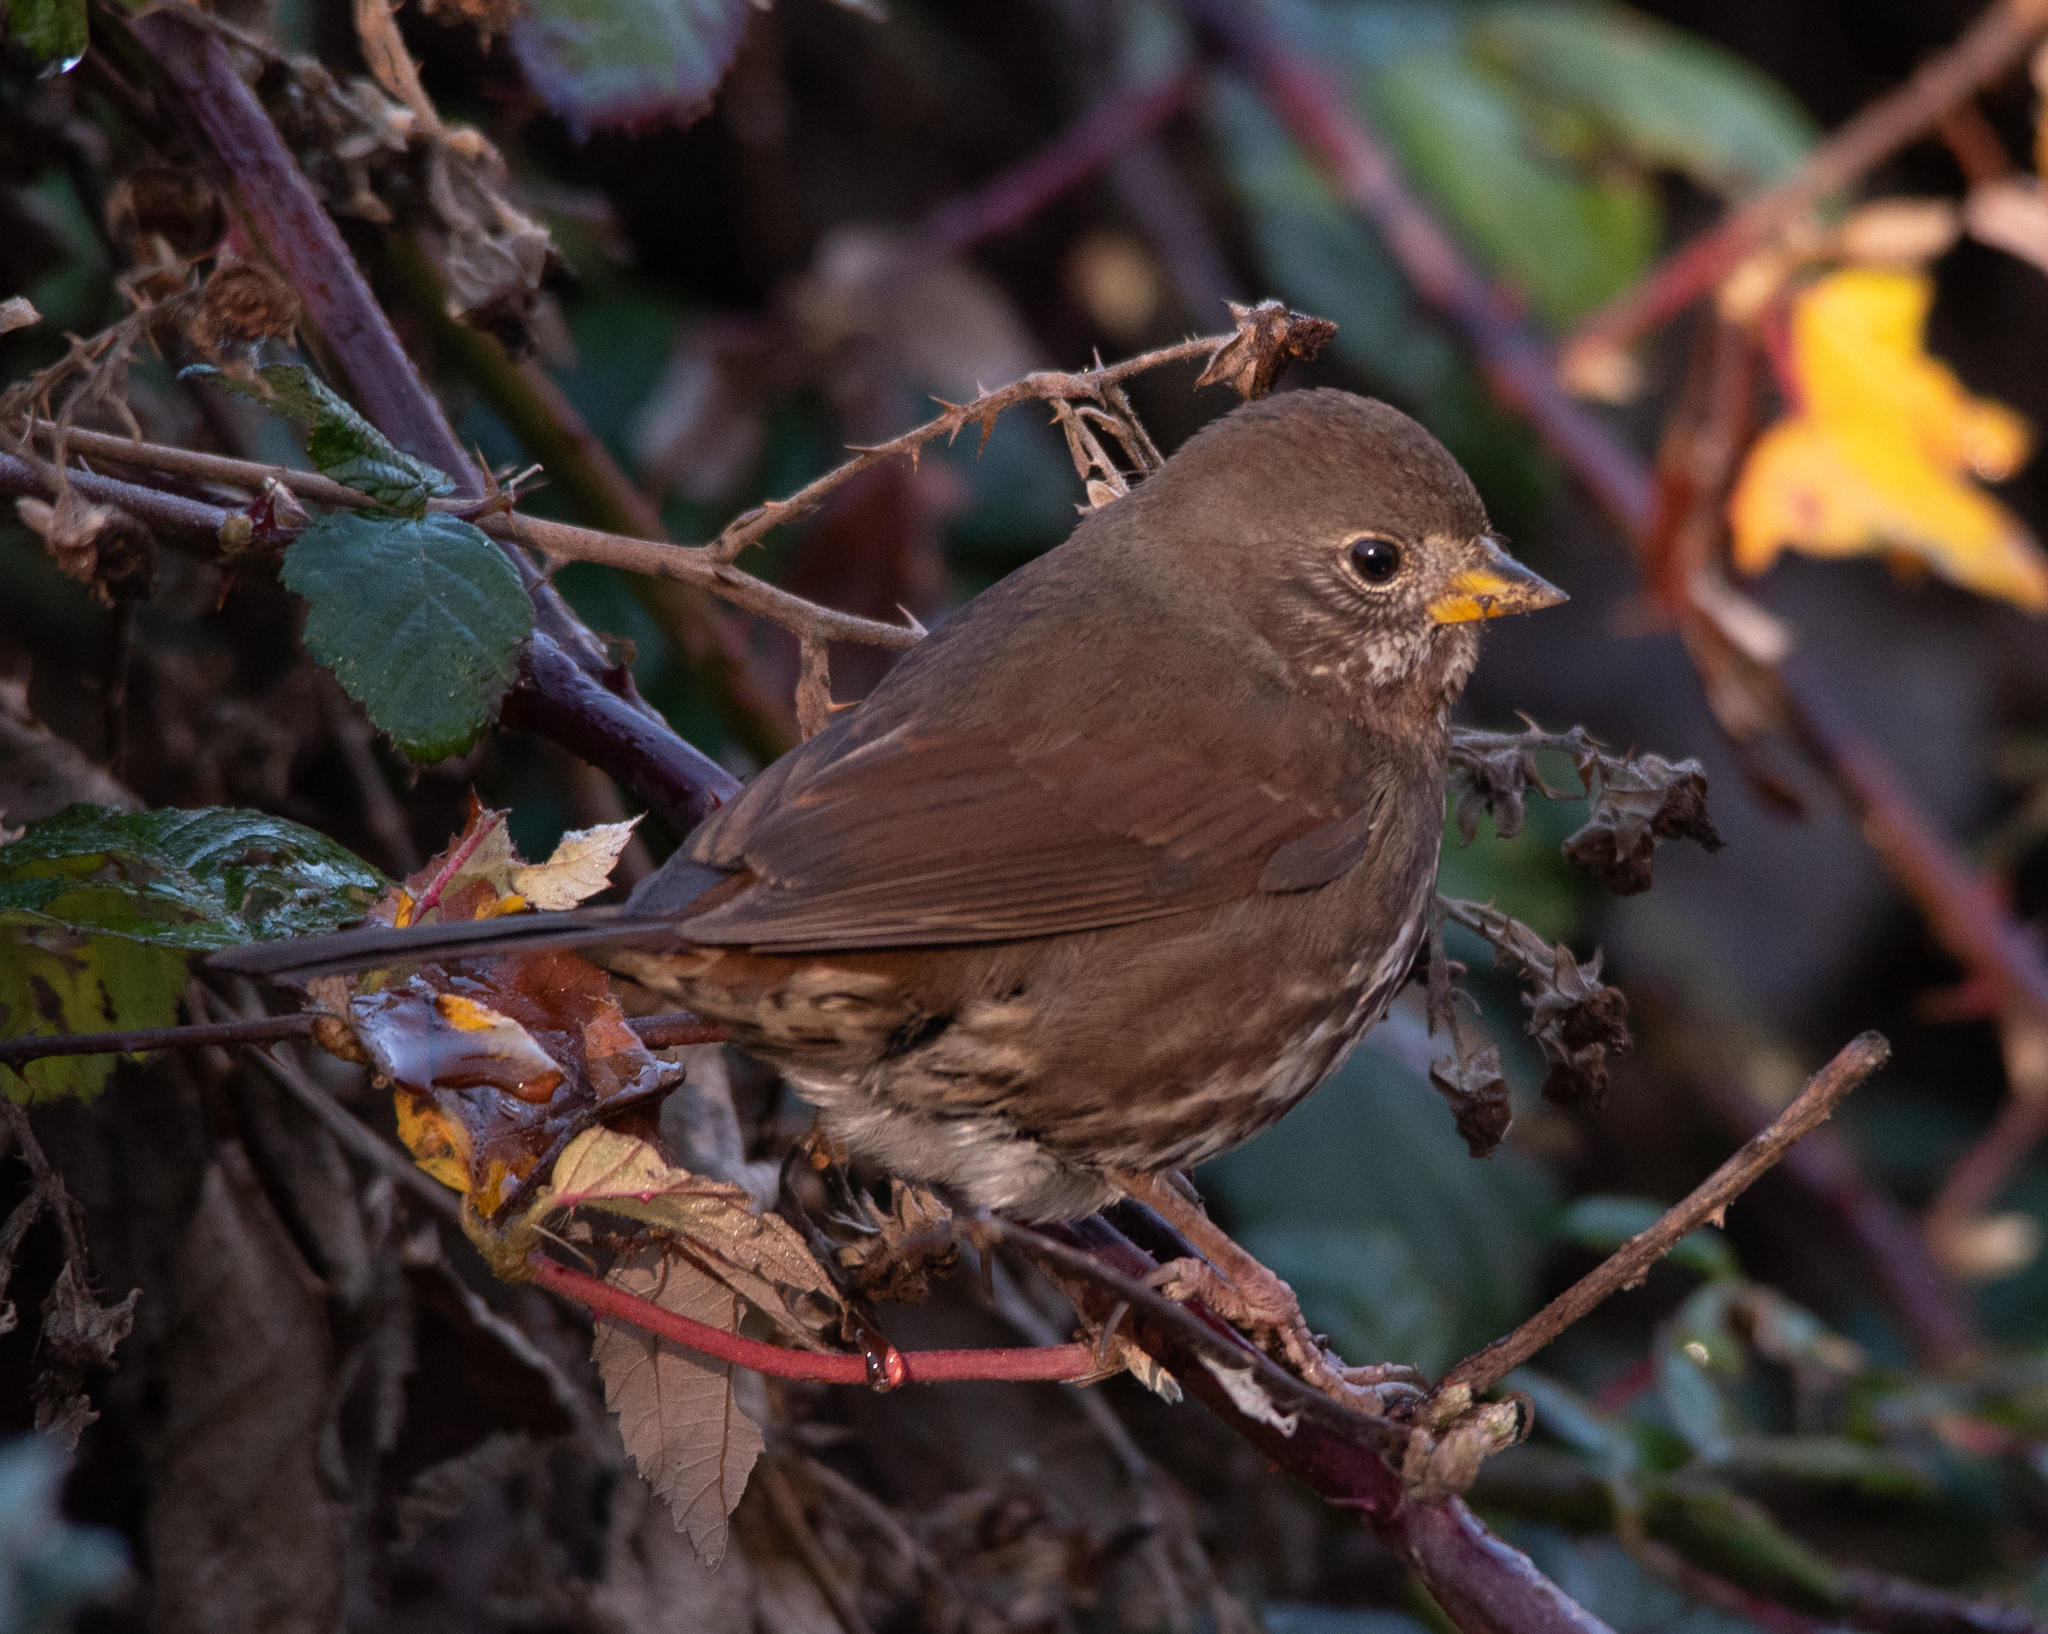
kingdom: Animalia
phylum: Chordata
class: Aves
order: Passeriformes
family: Passerellidae
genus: Passerella
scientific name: Passerella iliaca
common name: Fox sparrow
